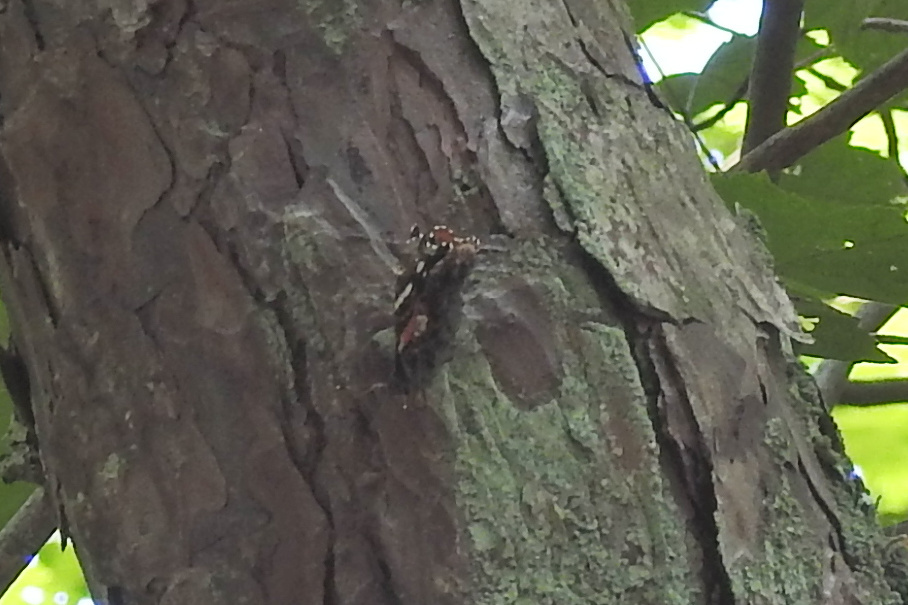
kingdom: Animalia
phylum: Arthropoda
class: Insecta
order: Lepidoptera
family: Nymphalidae
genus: Vanessa
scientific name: Vanessa atalanta
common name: Red admiral
